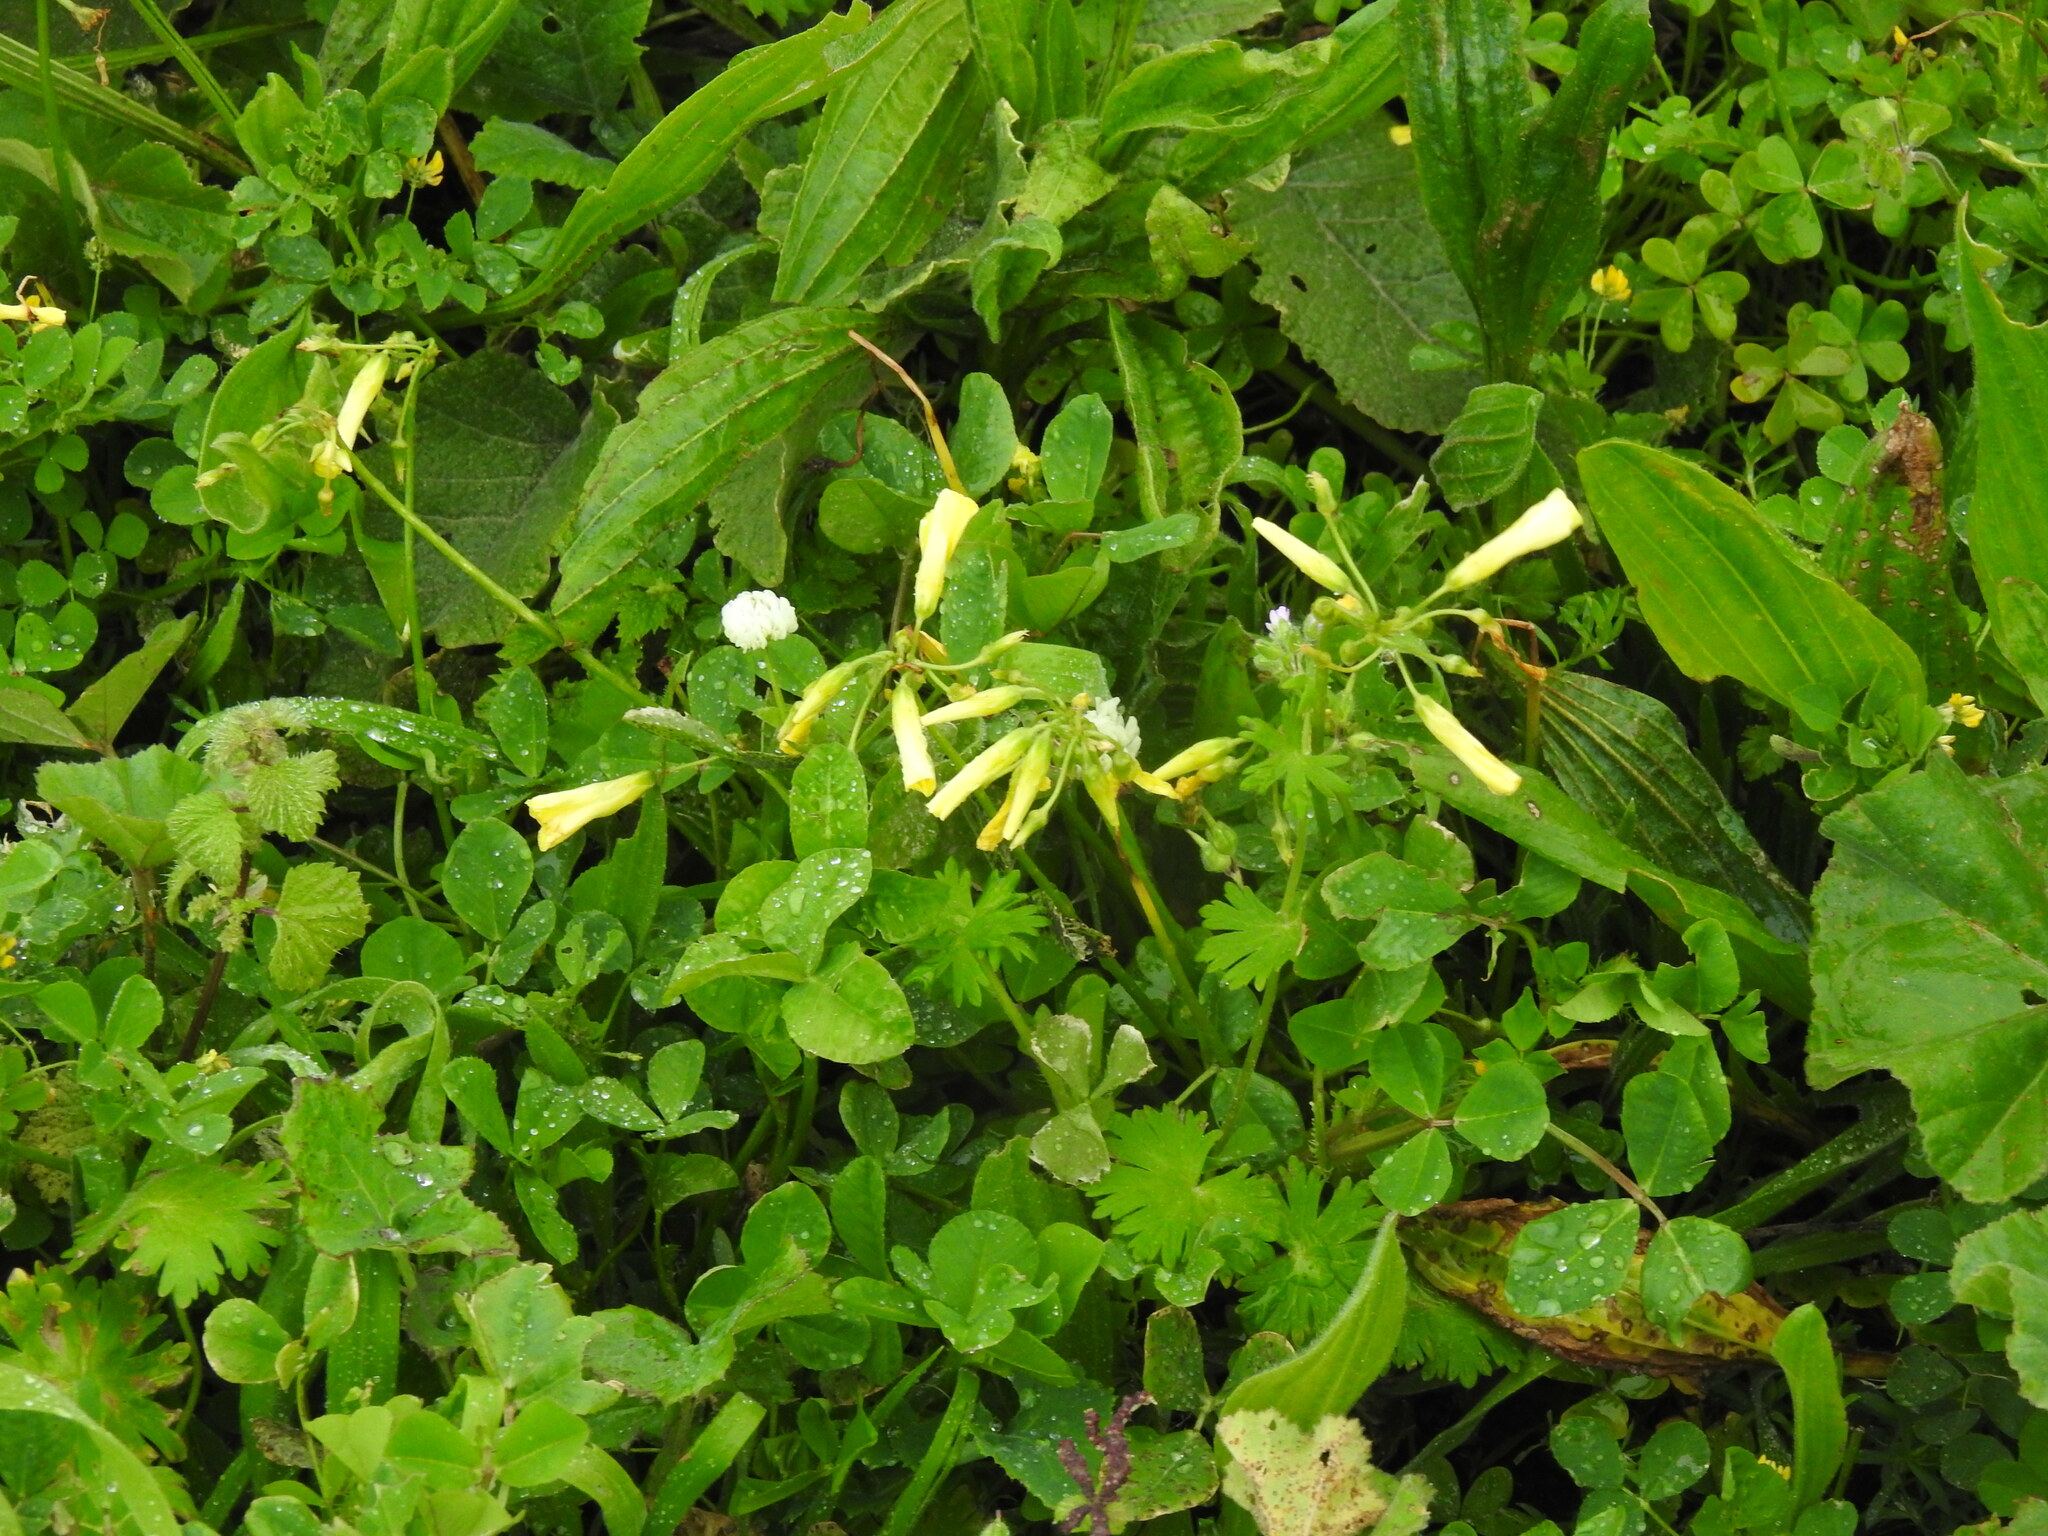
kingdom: Plantae
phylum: Tracheophyta
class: Magnoliopsida
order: Oxalidales
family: Oxalidaceae
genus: Oxalis
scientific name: Oxalis pes-caprae
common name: Bermuda-buttercup
